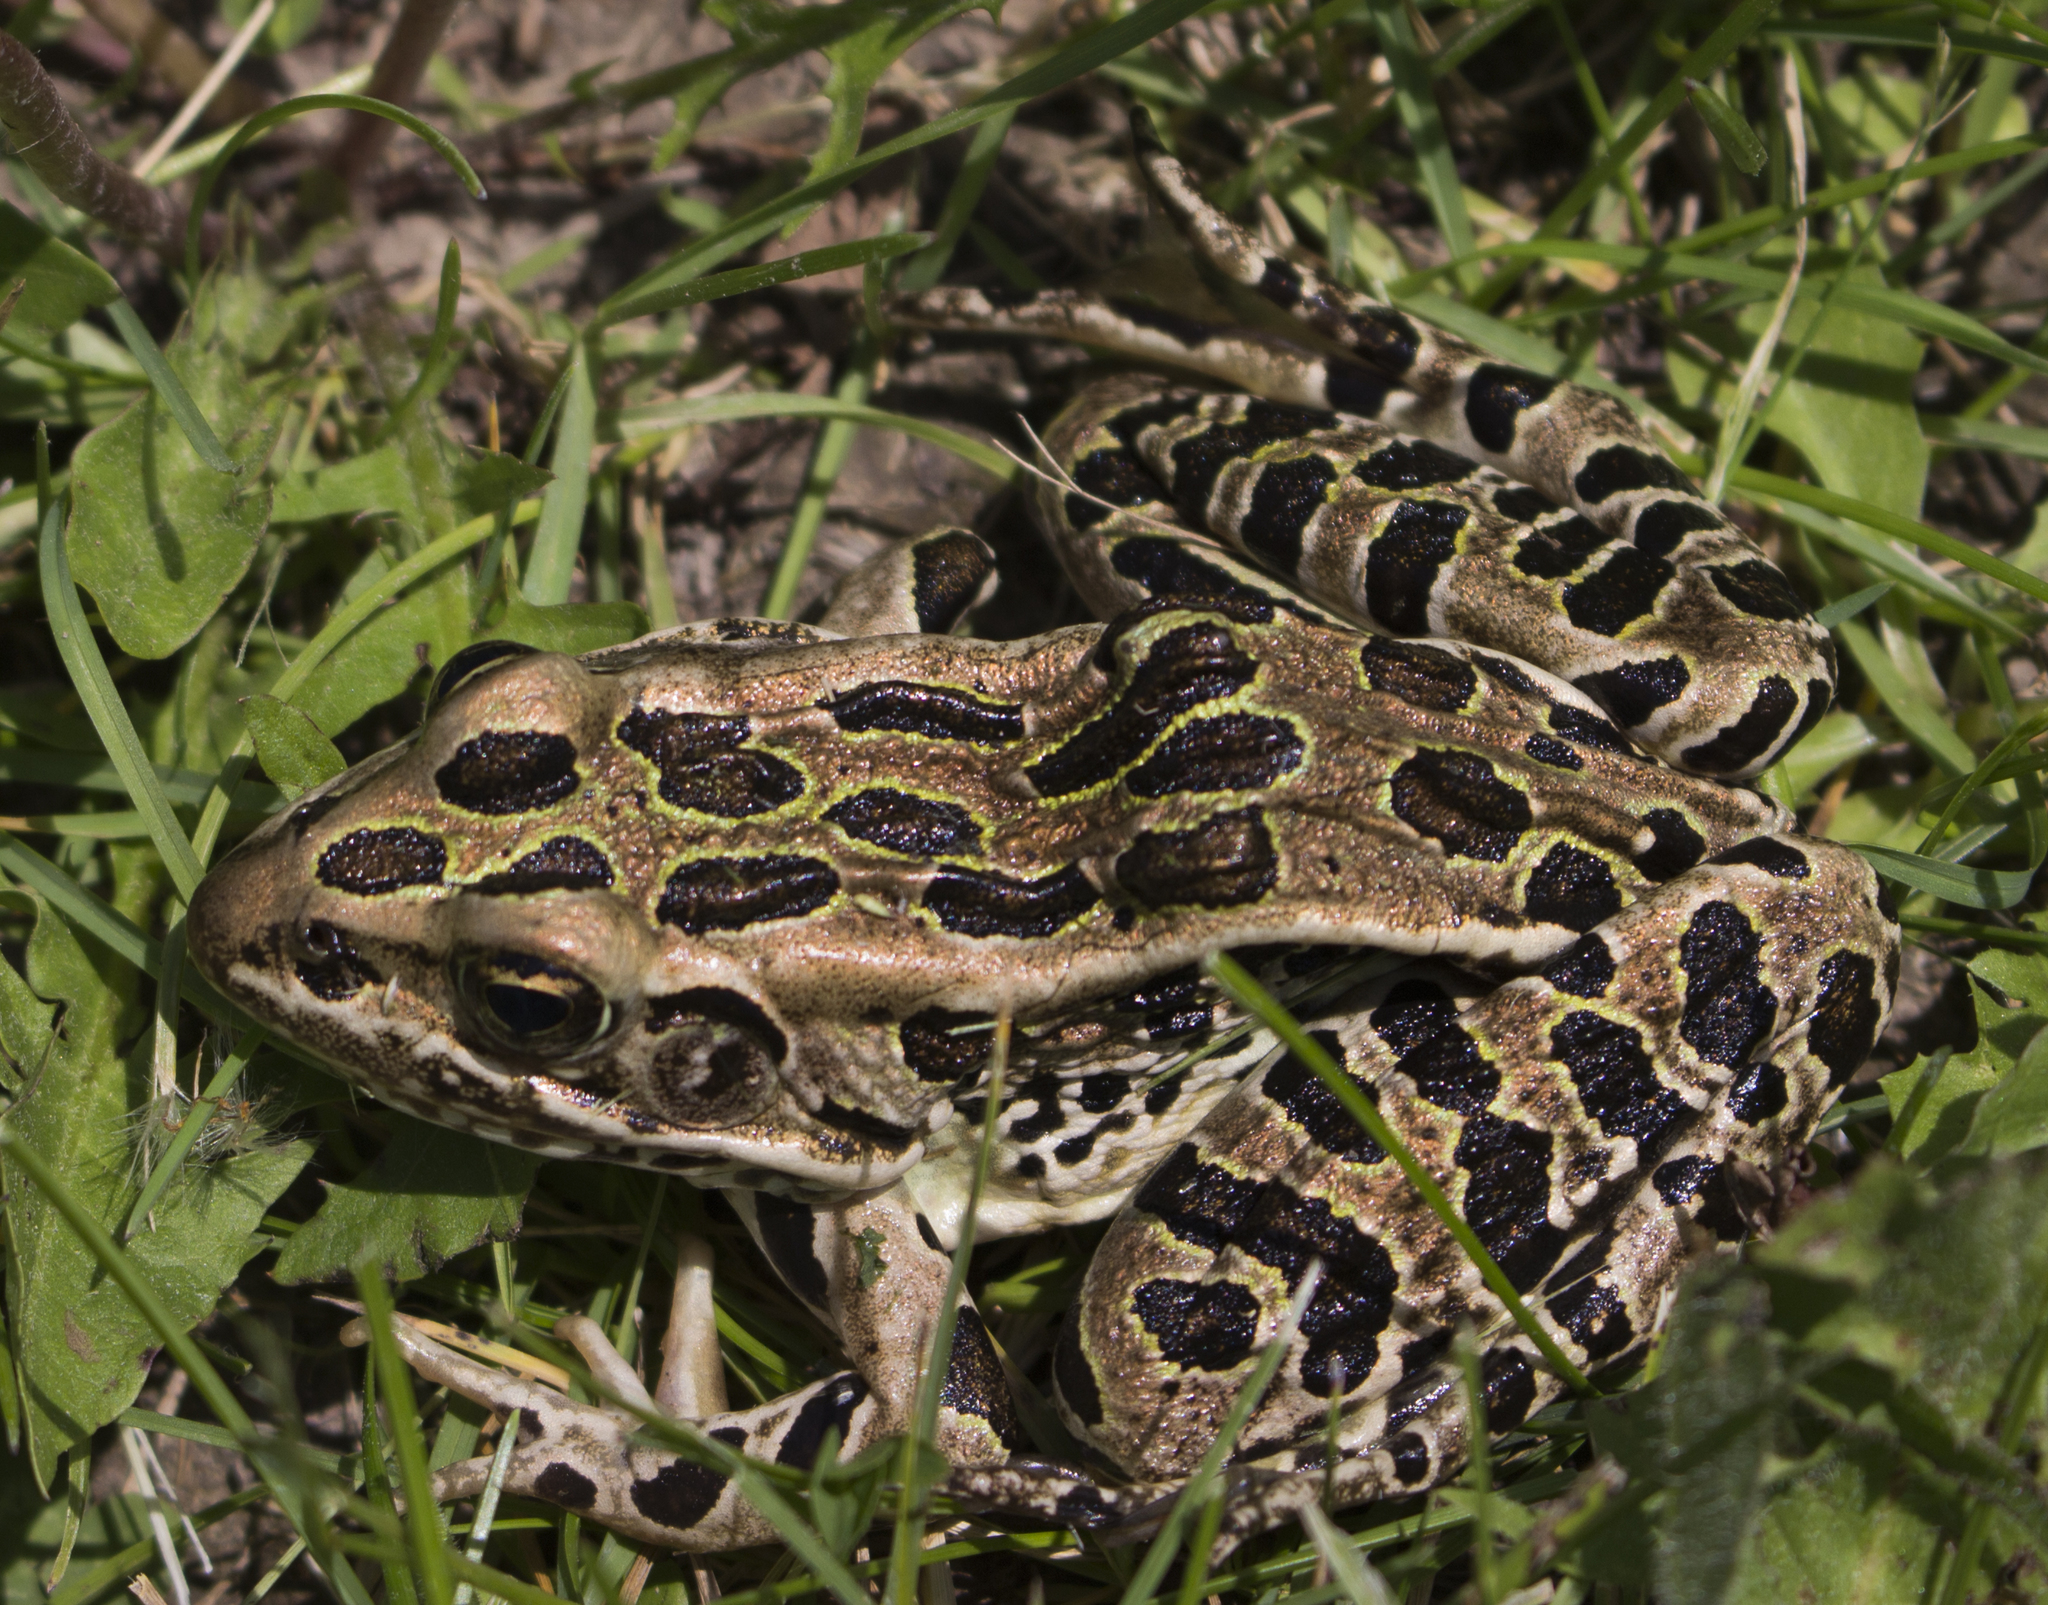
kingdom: Animalia
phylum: Chordata
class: Amphibia
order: Anura
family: Ranidae
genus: Lithobates
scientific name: Lithobates pipiens
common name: Northern leopard frog
